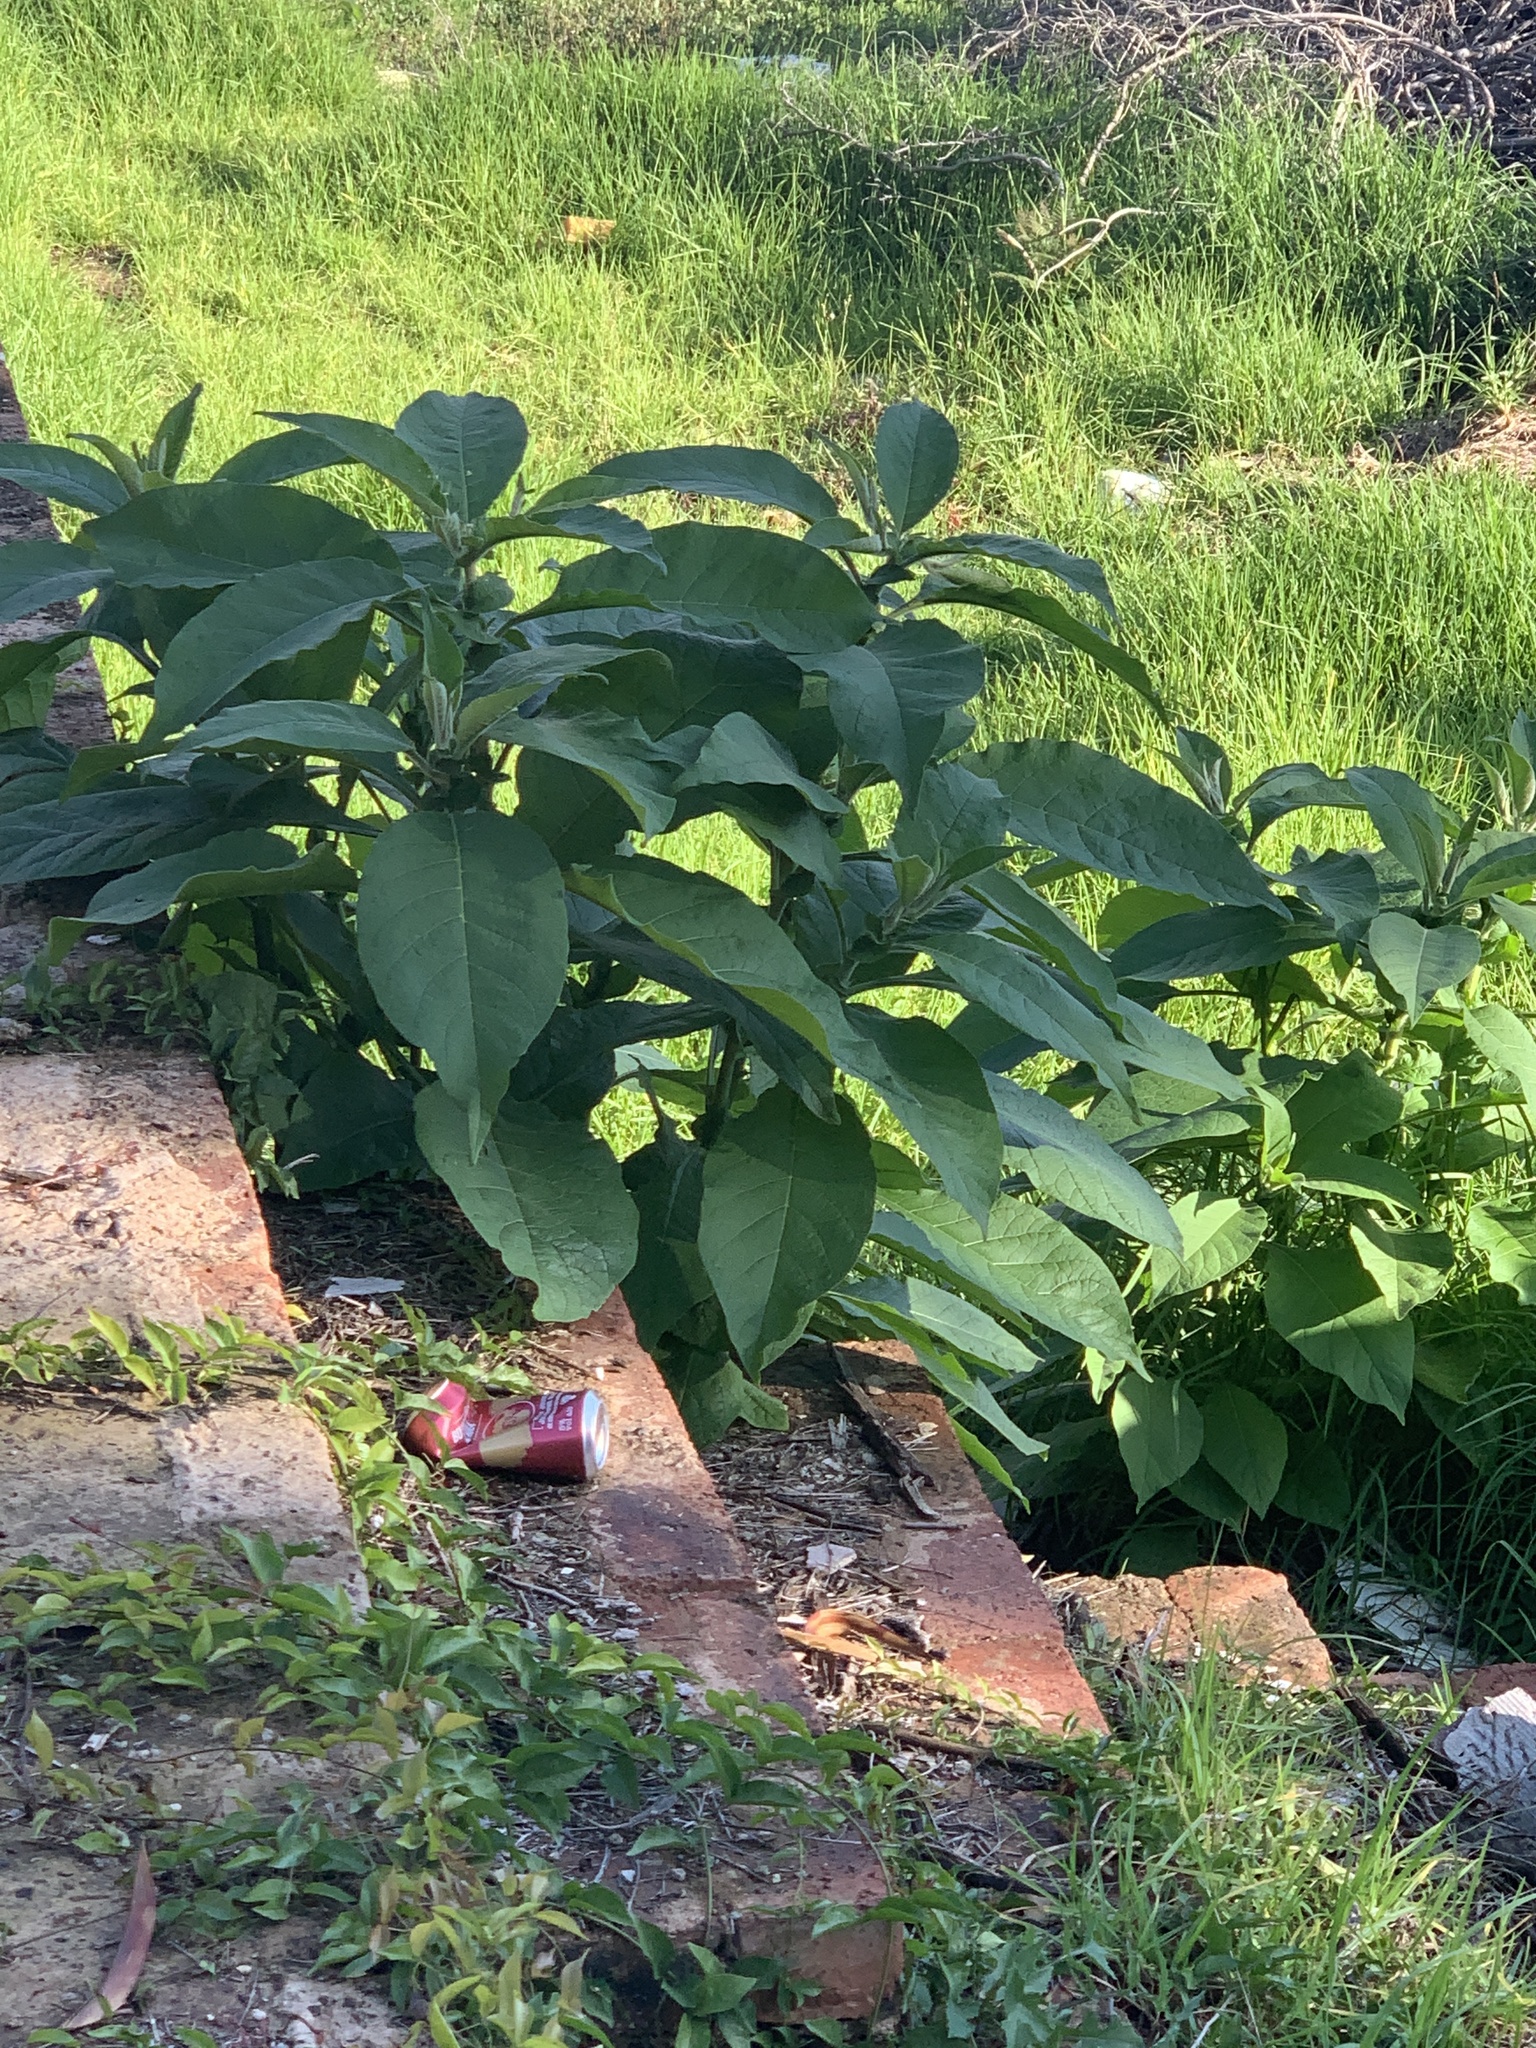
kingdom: Plantae
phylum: Tracheophyta
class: Magnoliopsida
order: Solanales
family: Solanaceae
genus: Solanum
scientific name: Solanum mauritianum
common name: Earleaf nightshade
